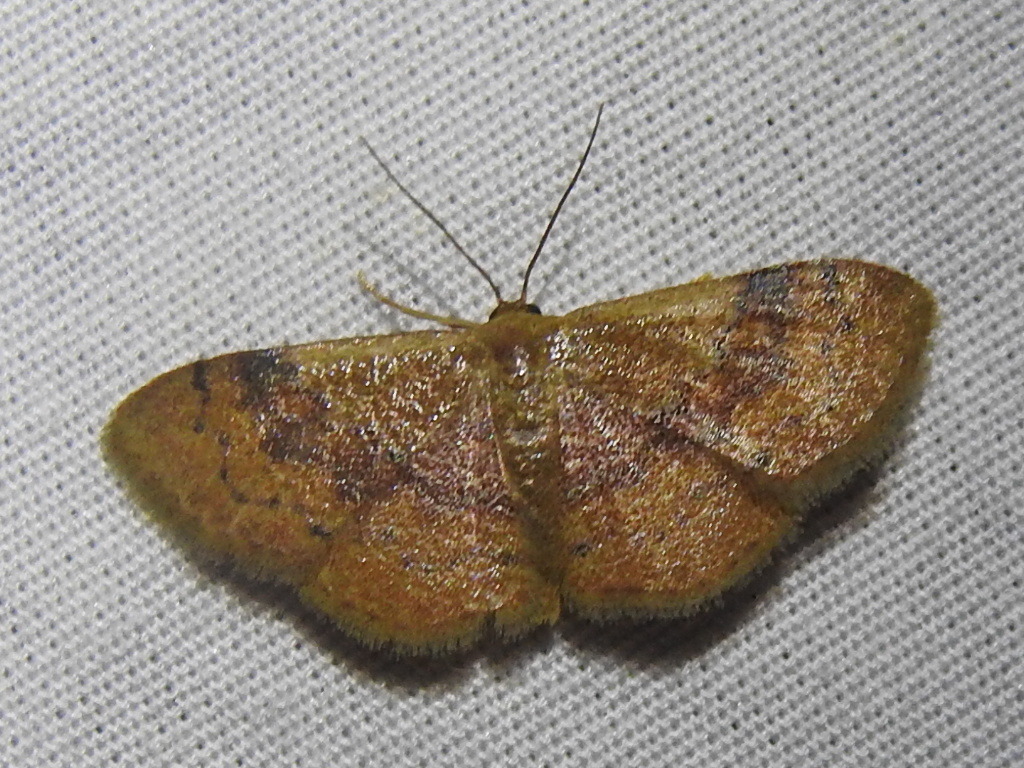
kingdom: Animalia
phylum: Arthropoda
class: Insecta
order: Lepidoptera
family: Geometridae
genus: Leptostales
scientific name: Leptostales ferruminaria
